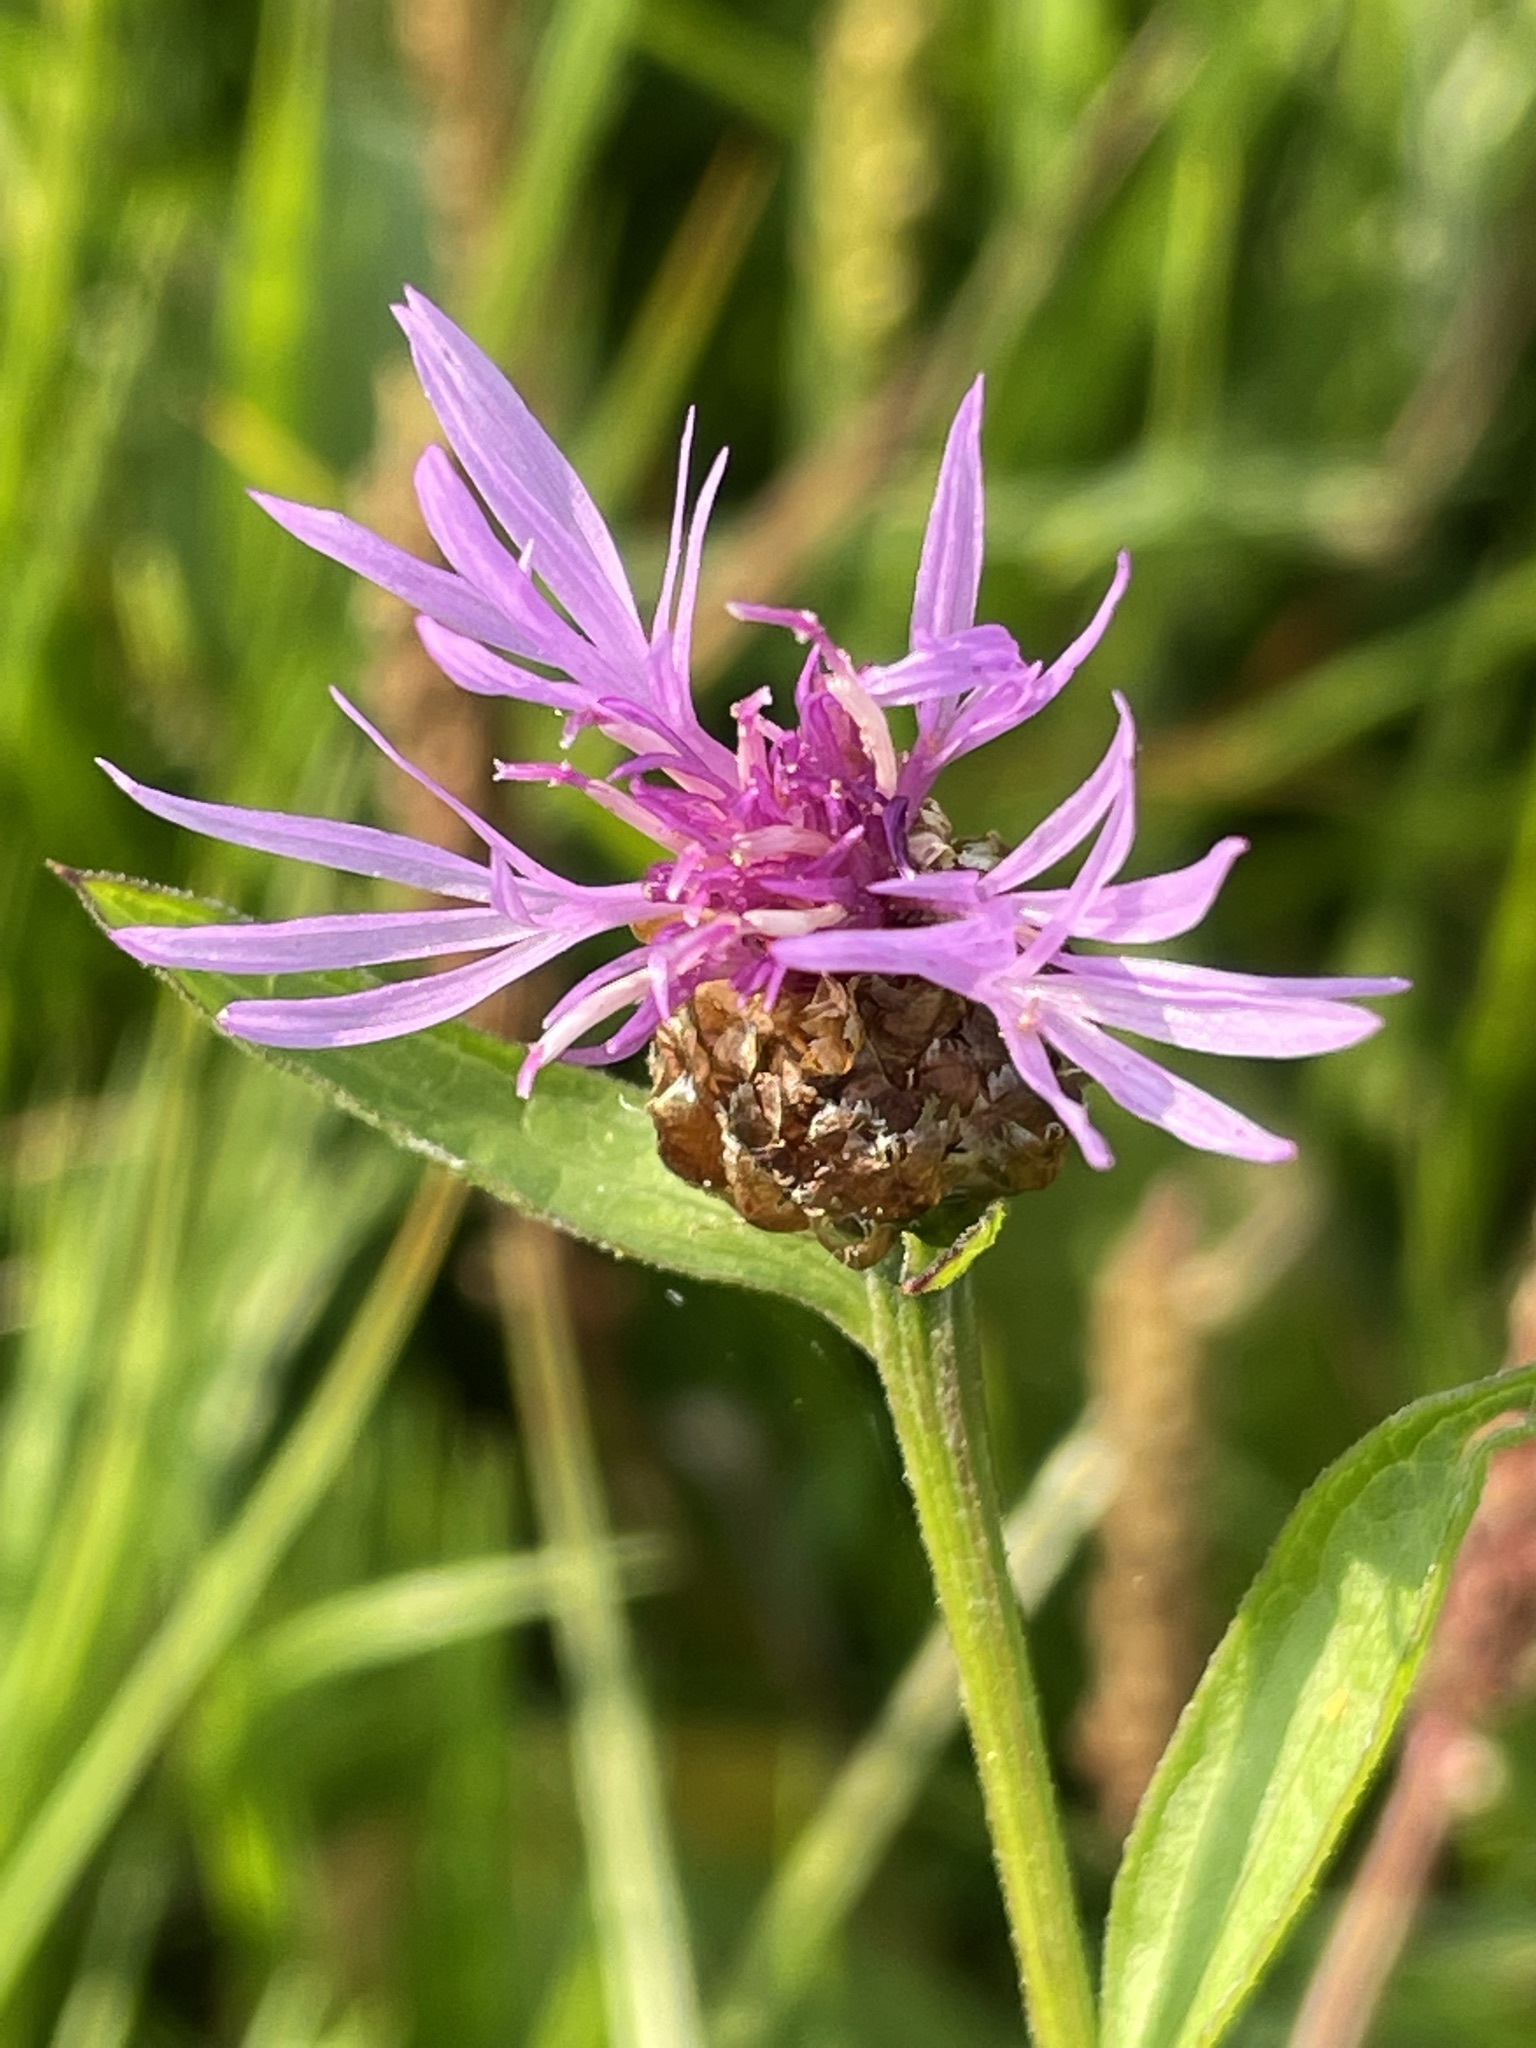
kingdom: Plantae
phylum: Tracheophyta
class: Magnoliopsida
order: Asterales
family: Asteraceae
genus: Centaurea
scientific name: Centaurea jacea
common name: Brown knapweed
